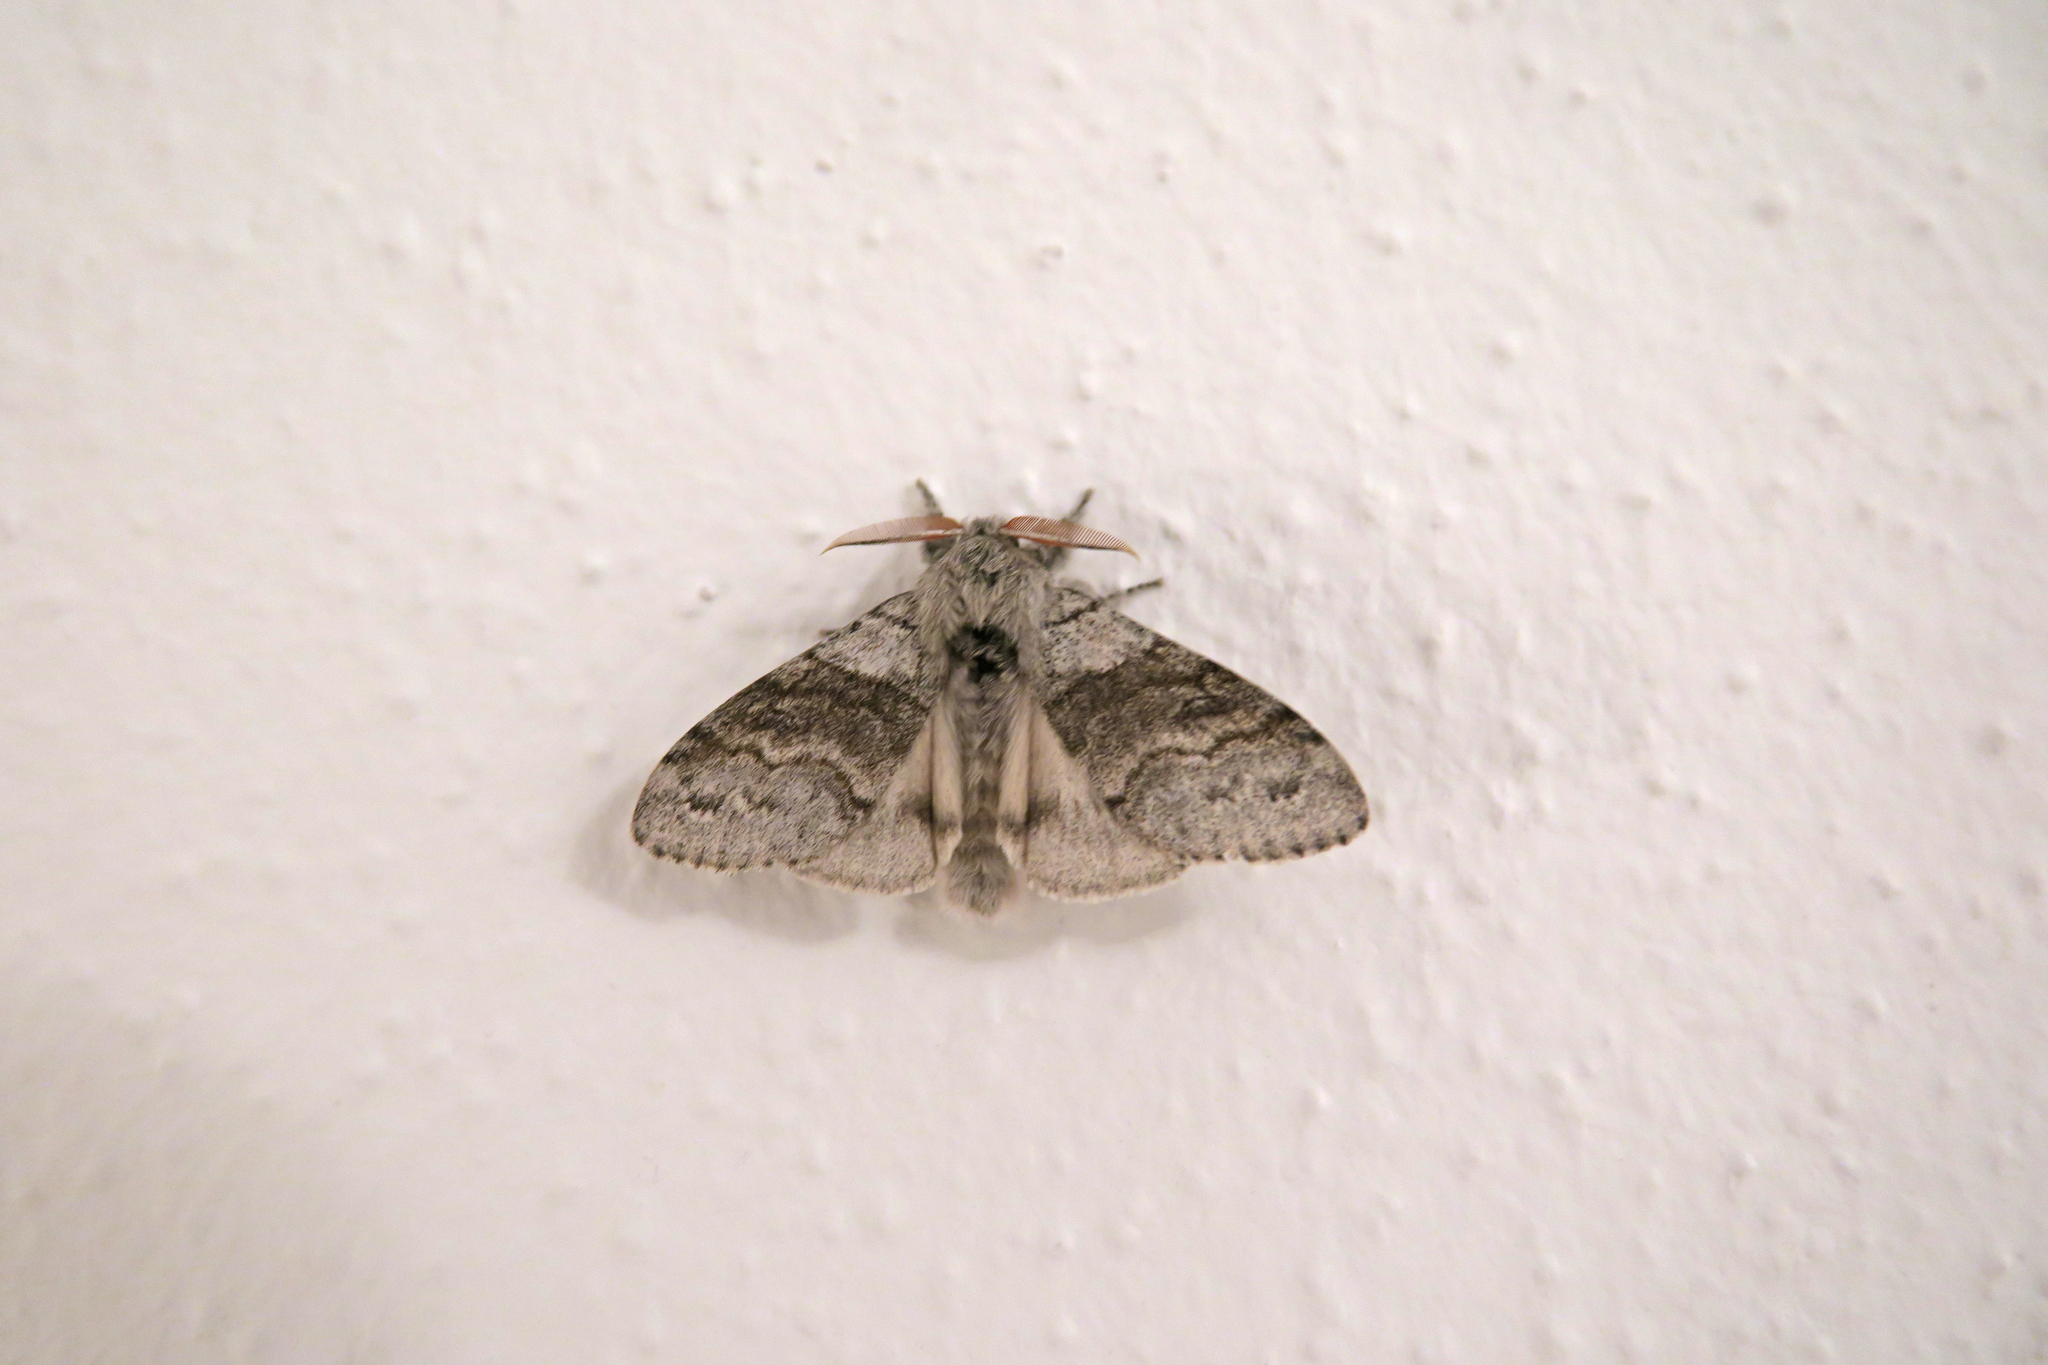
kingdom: Animalia
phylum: Arthropoda
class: Insecta
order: Lepidoptera
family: Erebidae
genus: Calliteara
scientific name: Calliteara pudibunda
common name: Pale tussock
